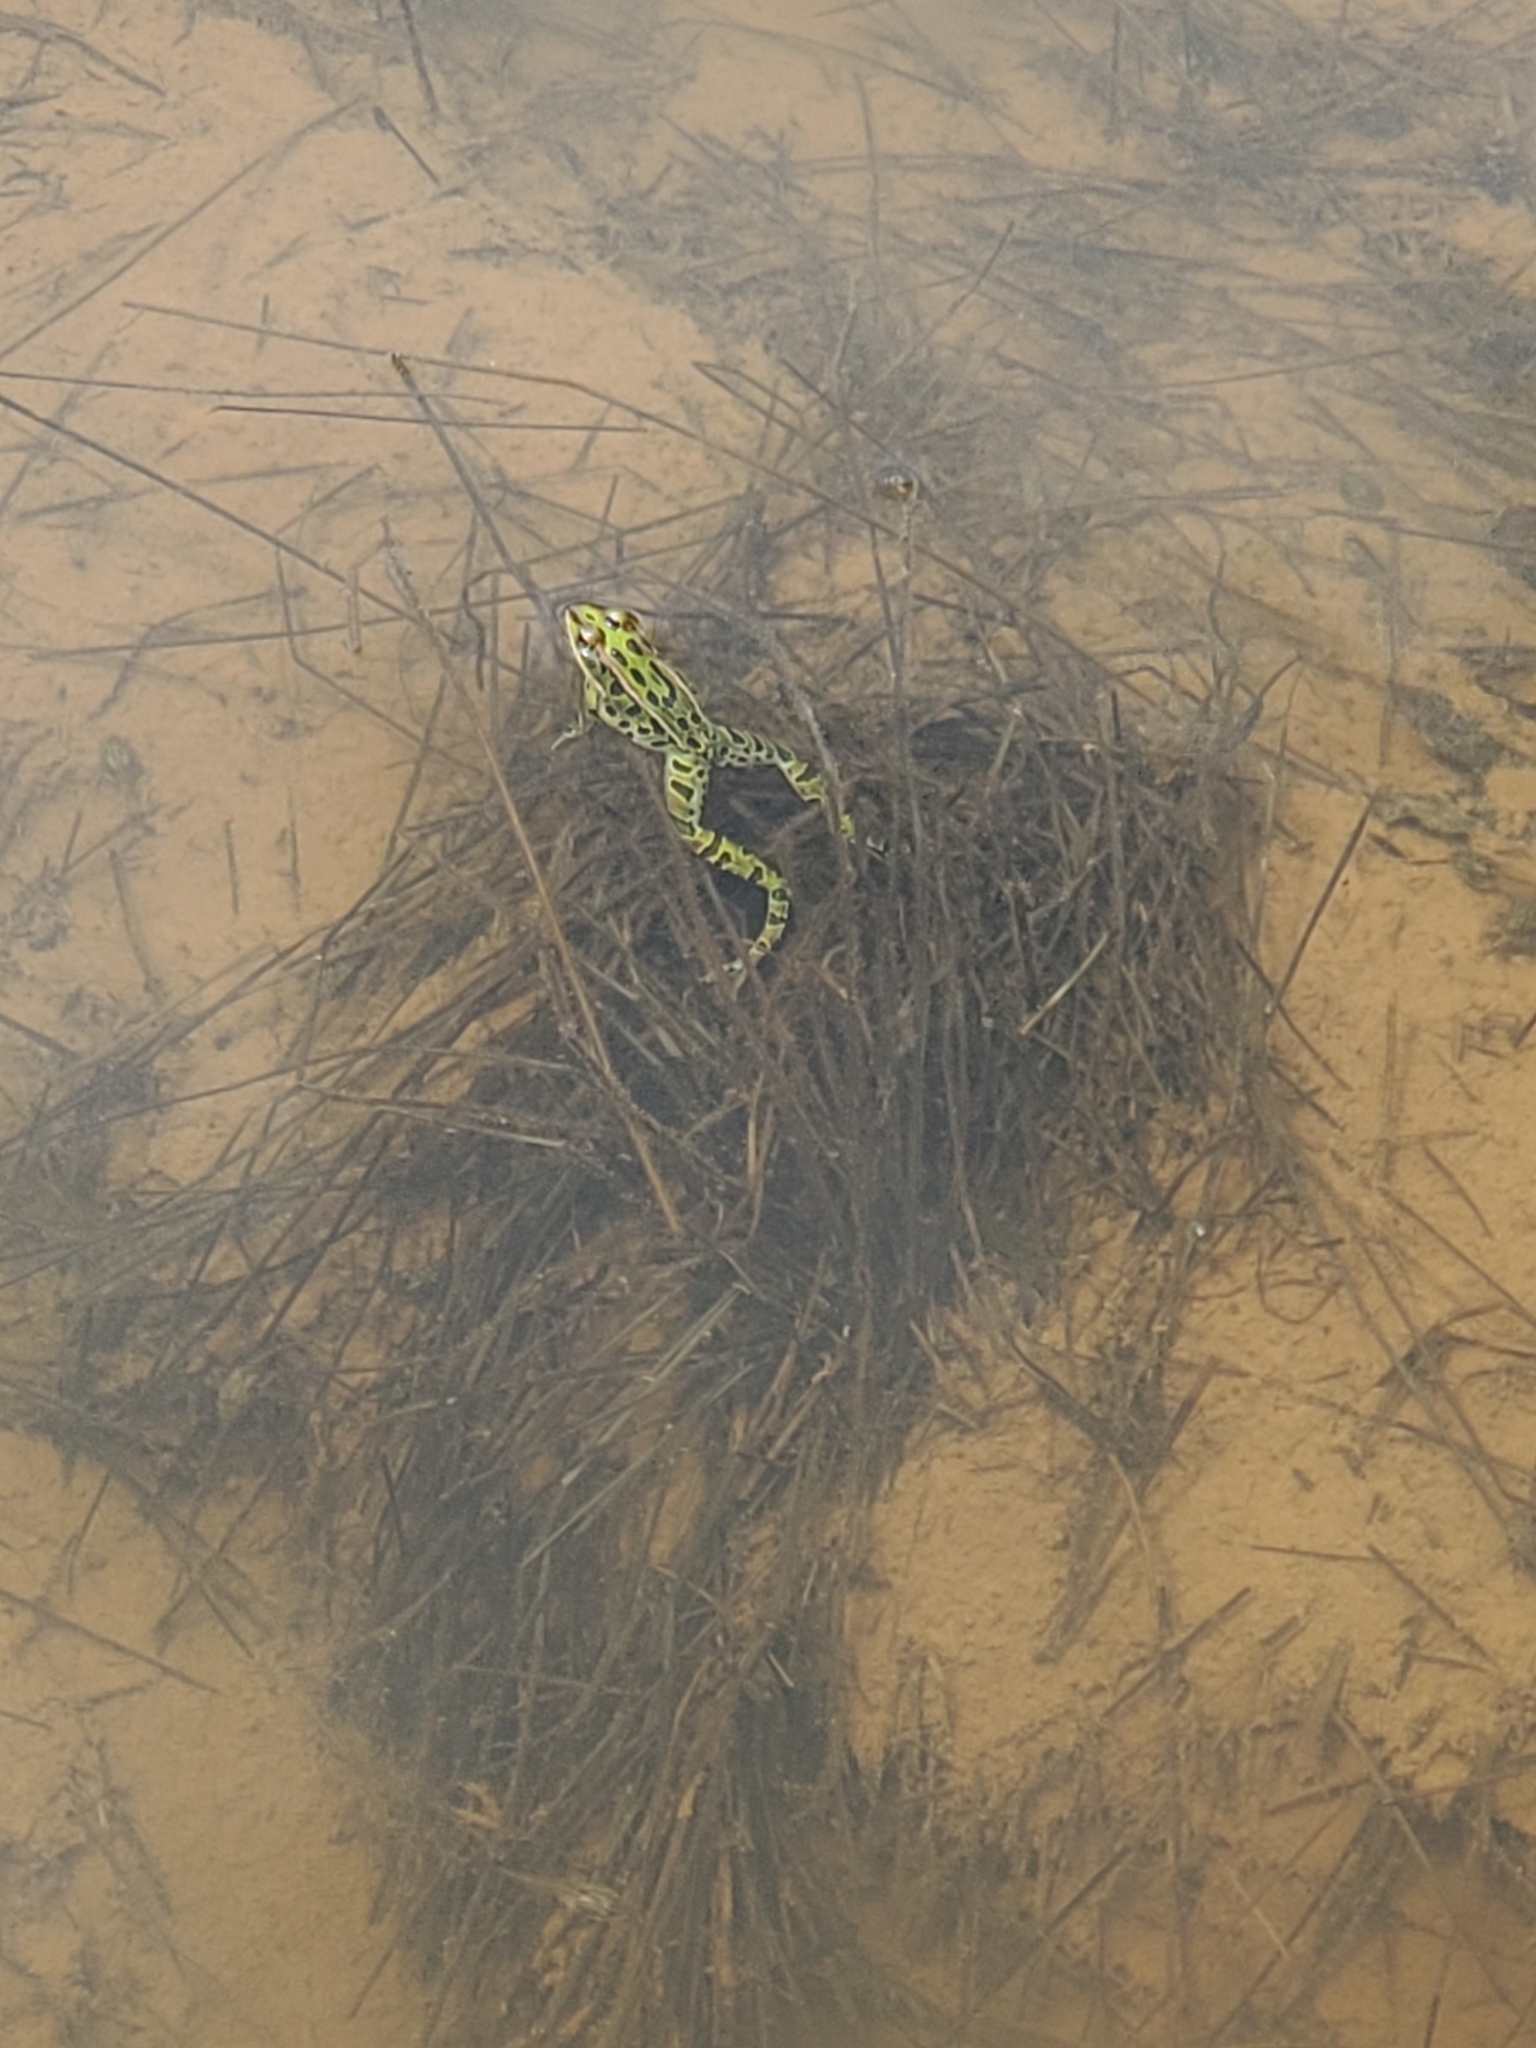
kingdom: Animalia
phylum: Chordata
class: Amphibia
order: Anura
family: Ranidae
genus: Lithobates
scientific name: Lithobates pipiens
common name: Northern leopard frog
